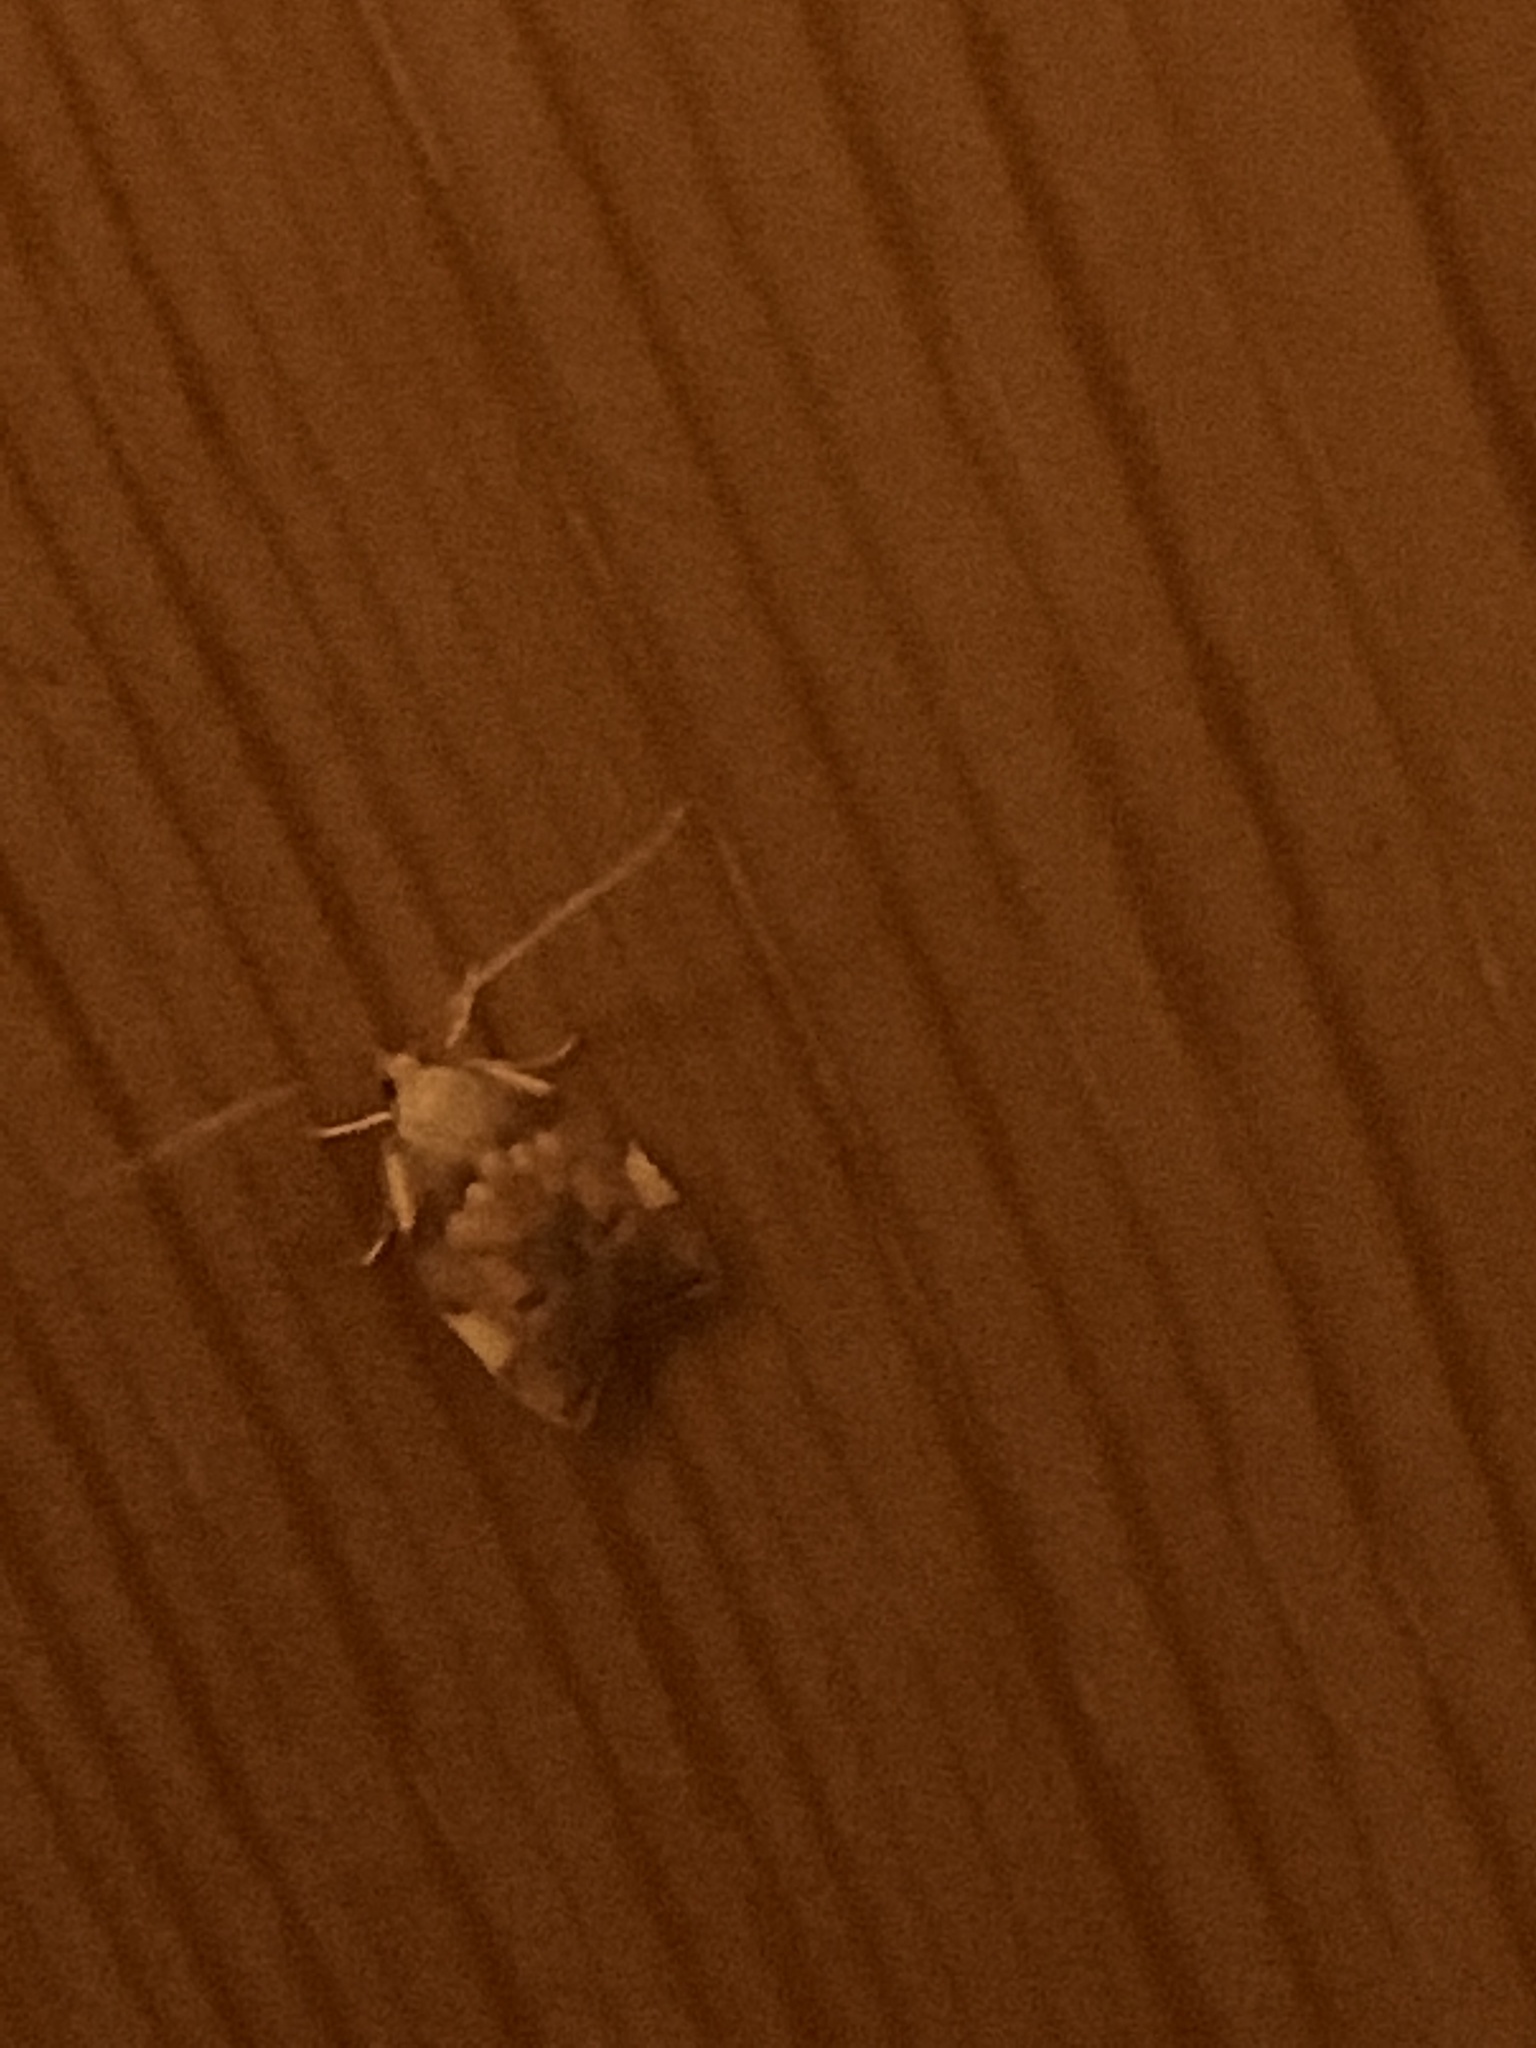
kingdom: Animalia
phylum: Arthropoda
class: Insecta
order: Lepidoptera
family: Peleopodidae
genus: Carcina
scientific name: Carcina quercana
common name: Moth
